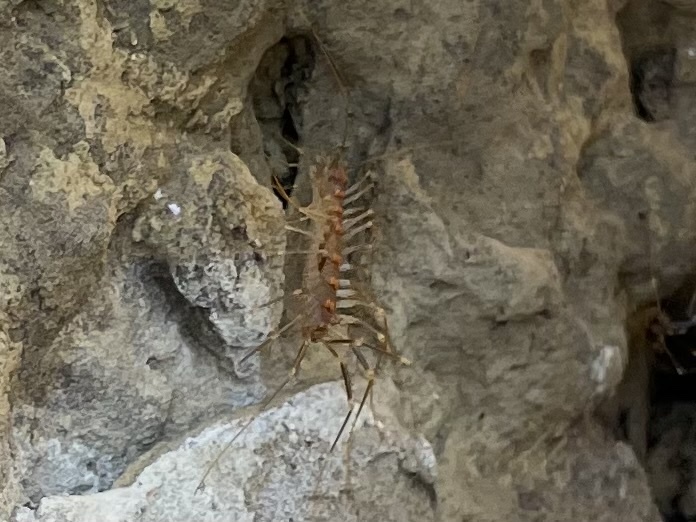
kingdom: Animalia
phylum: Arthropoda
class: Chilopoda
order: Scutigeromorpha
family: Scutigeridae
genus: Scutigera
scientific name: Scutigera linceci
